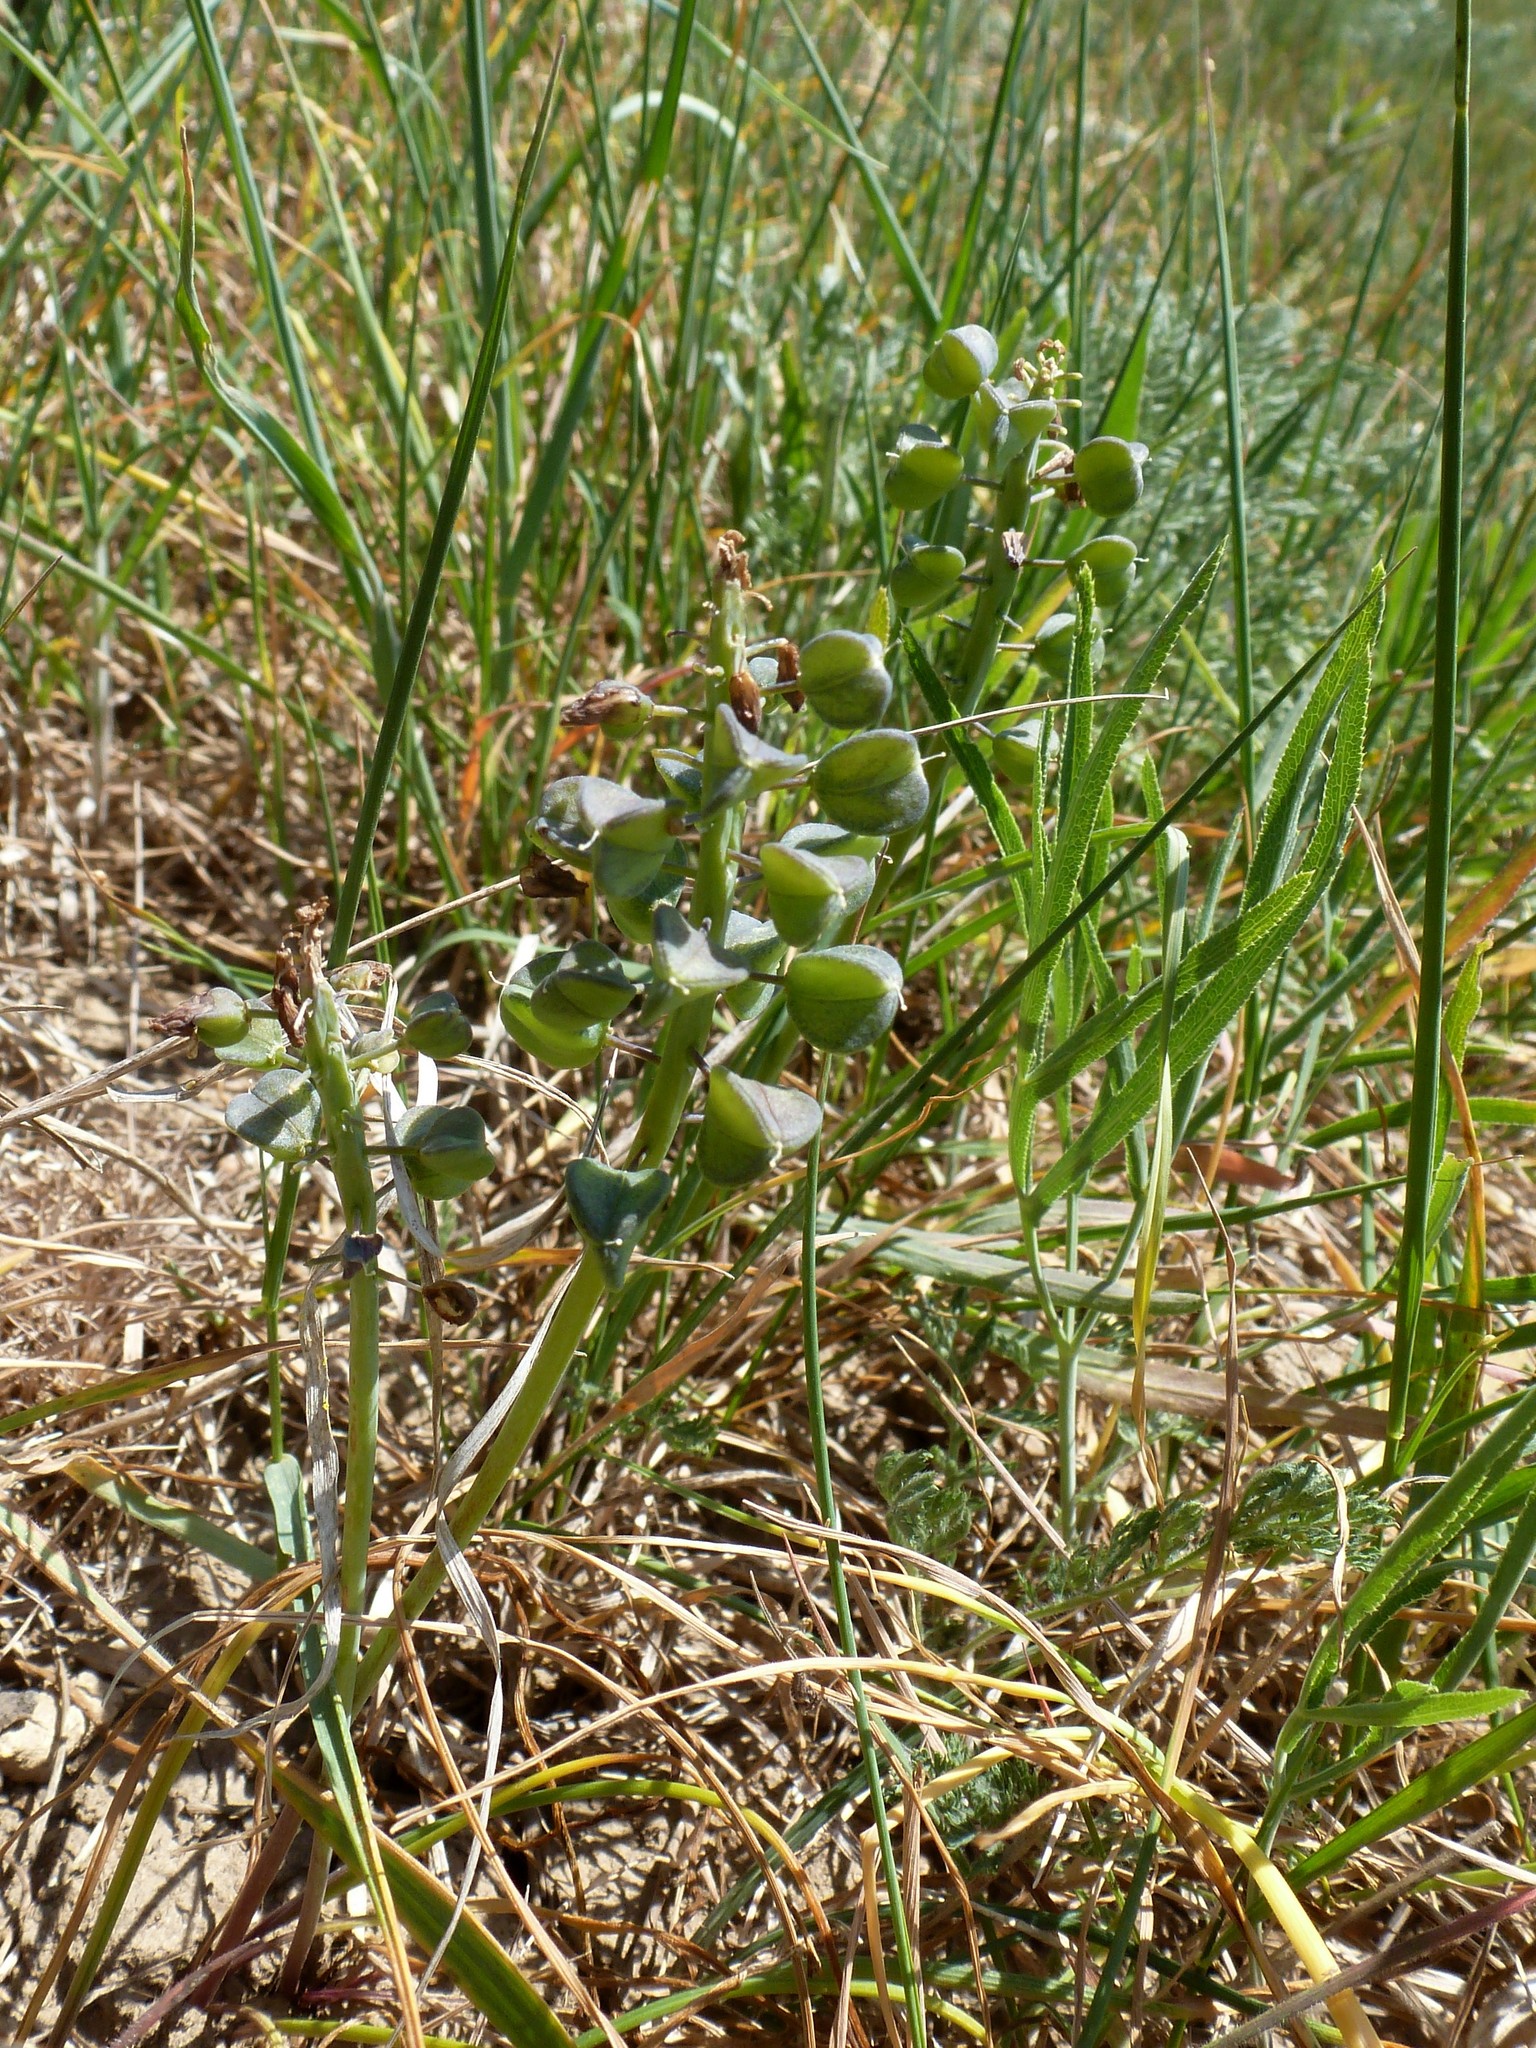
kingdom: Plantae
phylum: Tracheophyta
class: Liliopsida
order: Asparagales
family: Asparagaceae
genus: Muscari
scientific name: Muscari neglectum
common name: Grape-hyacinth
